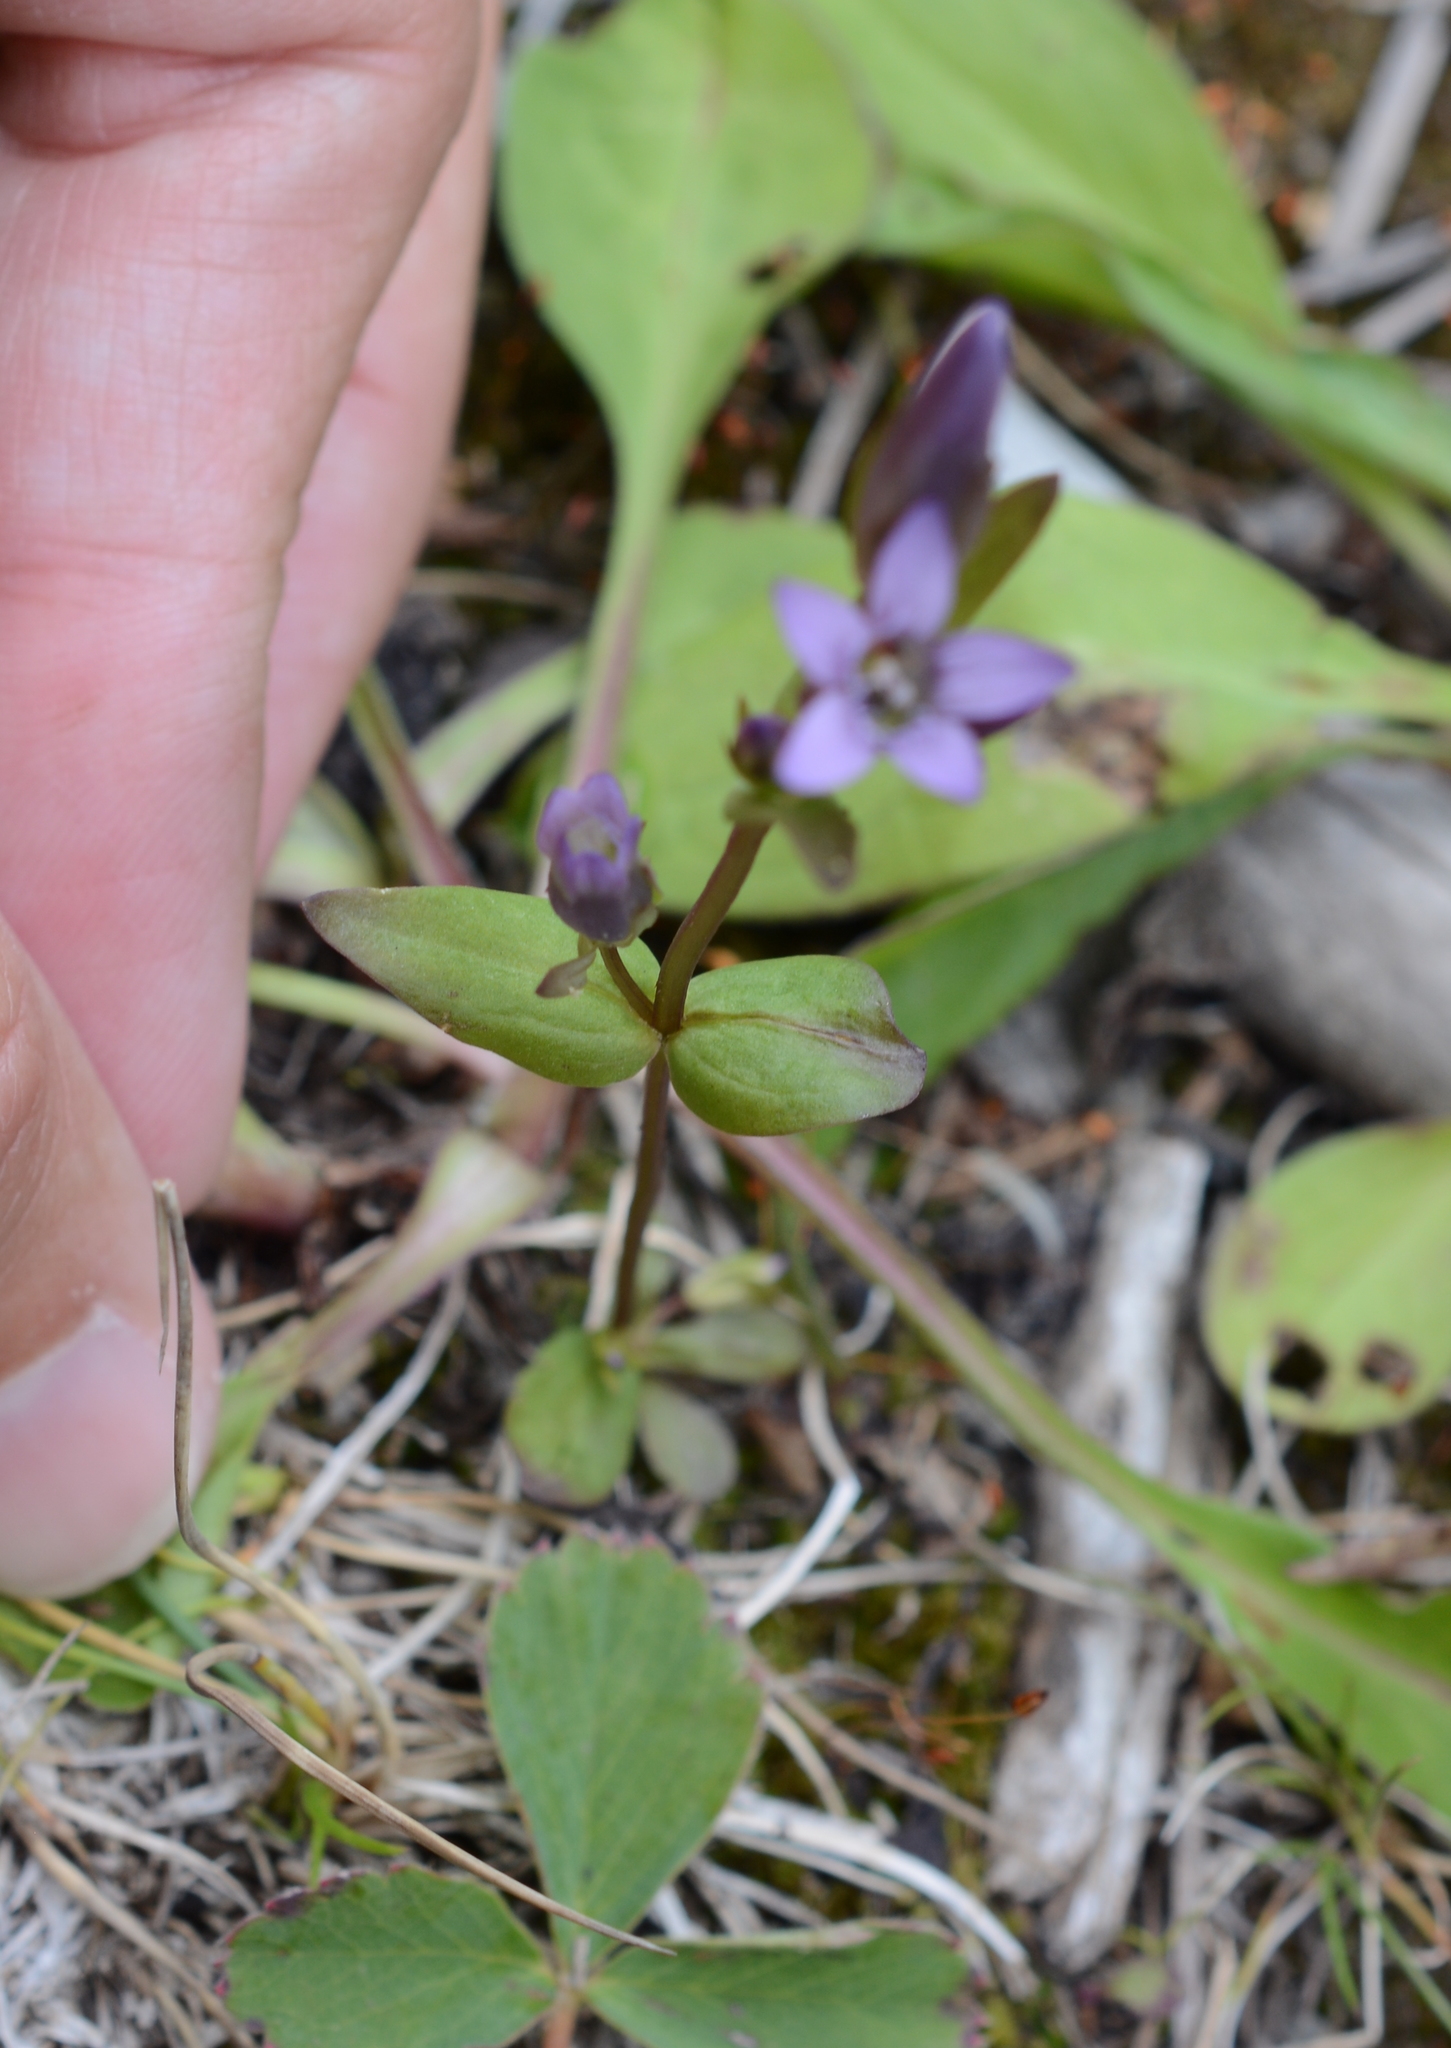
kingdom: Plantae
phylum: Tracheophyta
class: Magnoliopsida
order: Gentianales
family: Gentianaceae
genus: Gentianella
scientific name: Gentianella amarella
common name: Autumn gentian
